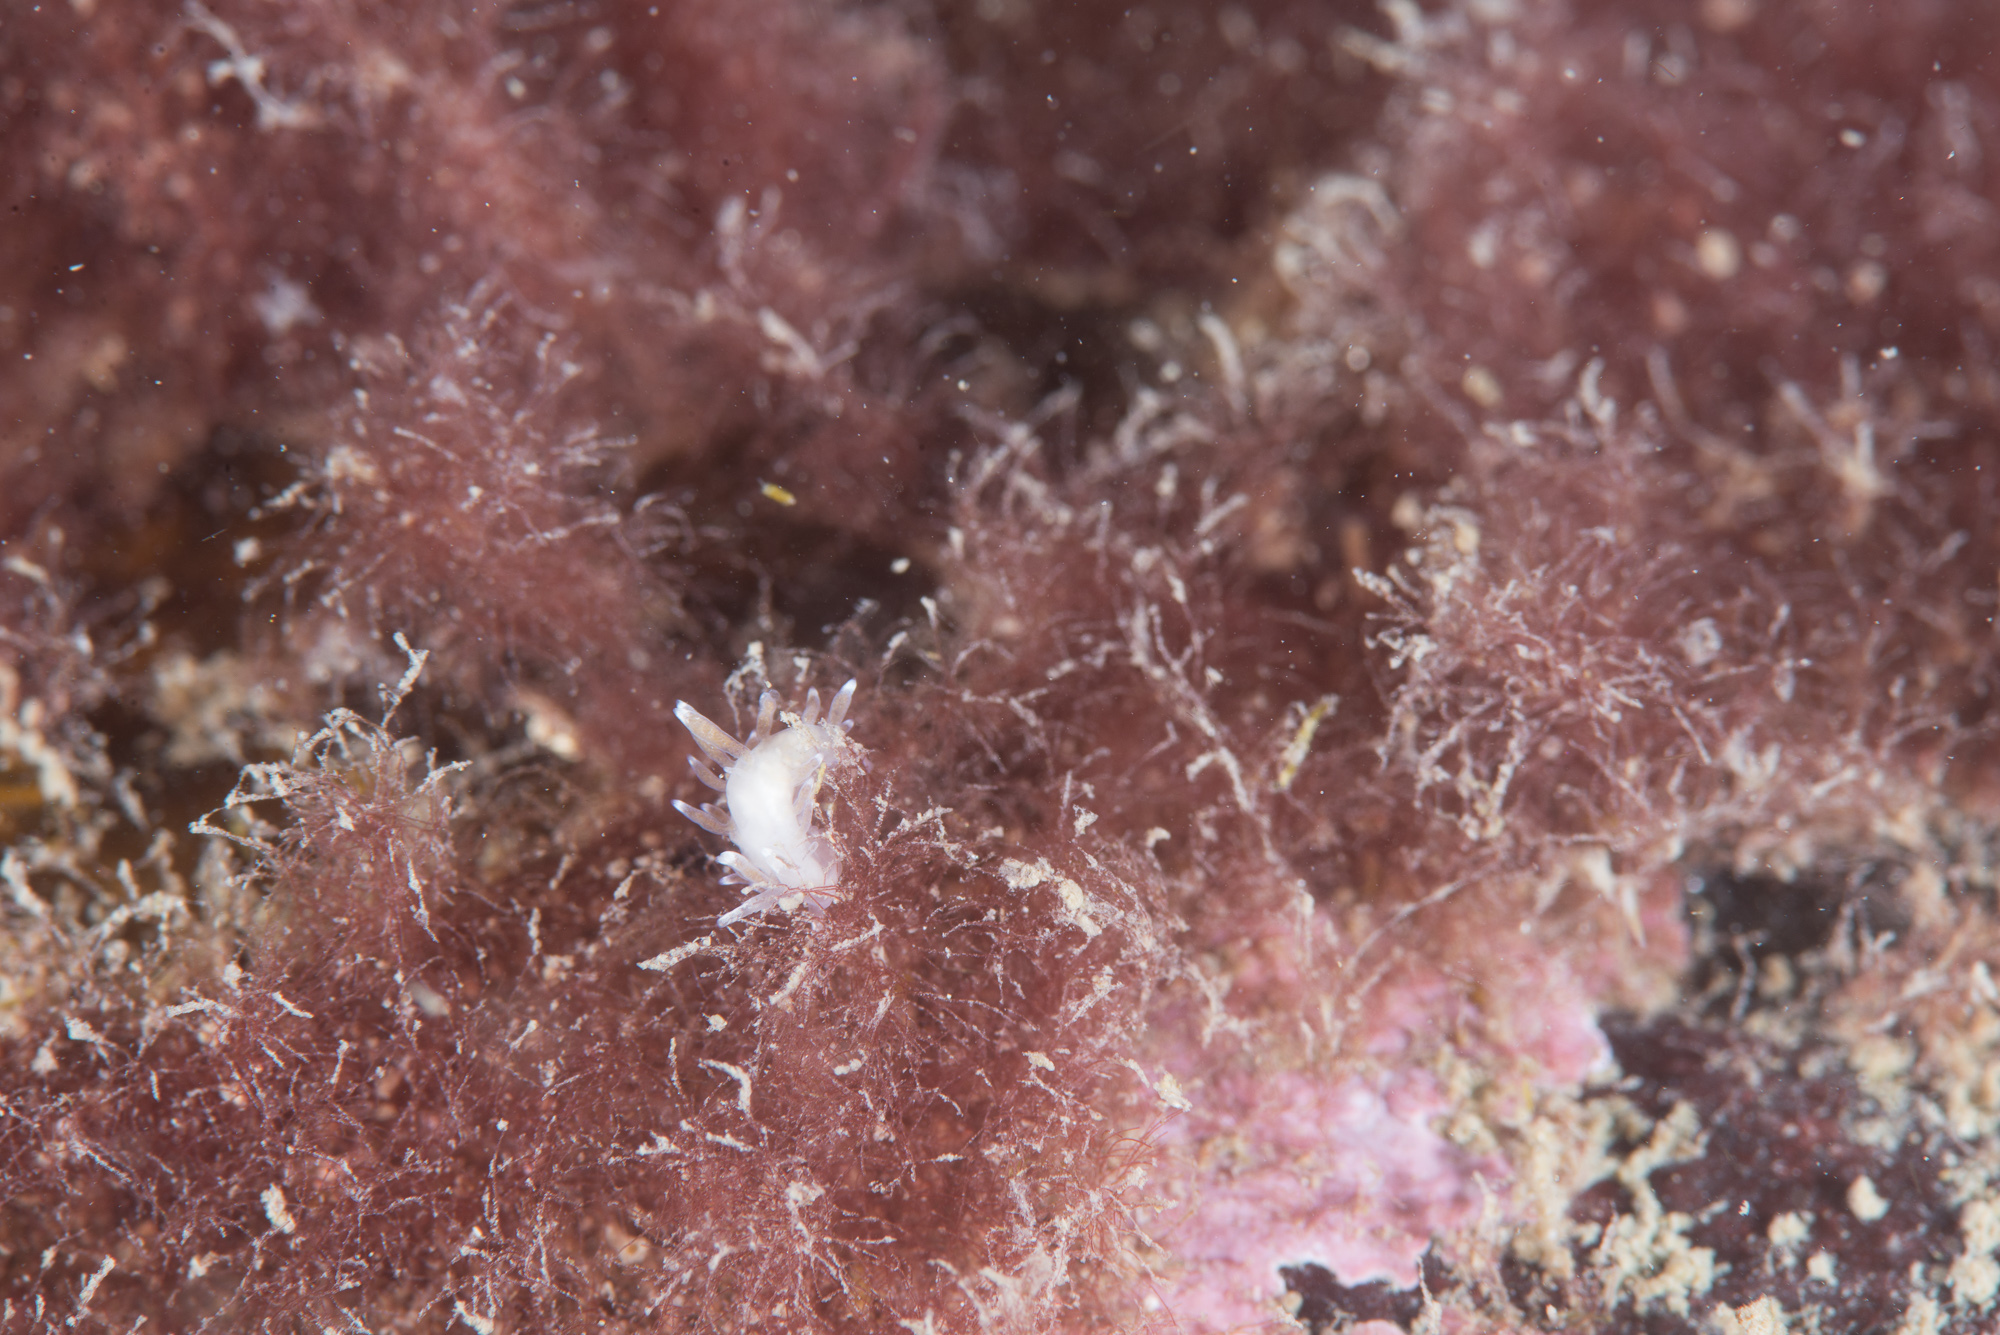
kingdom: Animalia
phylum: Mollusca
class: Gastropoda
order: Nudibranchia
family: Cuthonellidae
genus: Cuthonella
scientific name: Cuthonella concinna
